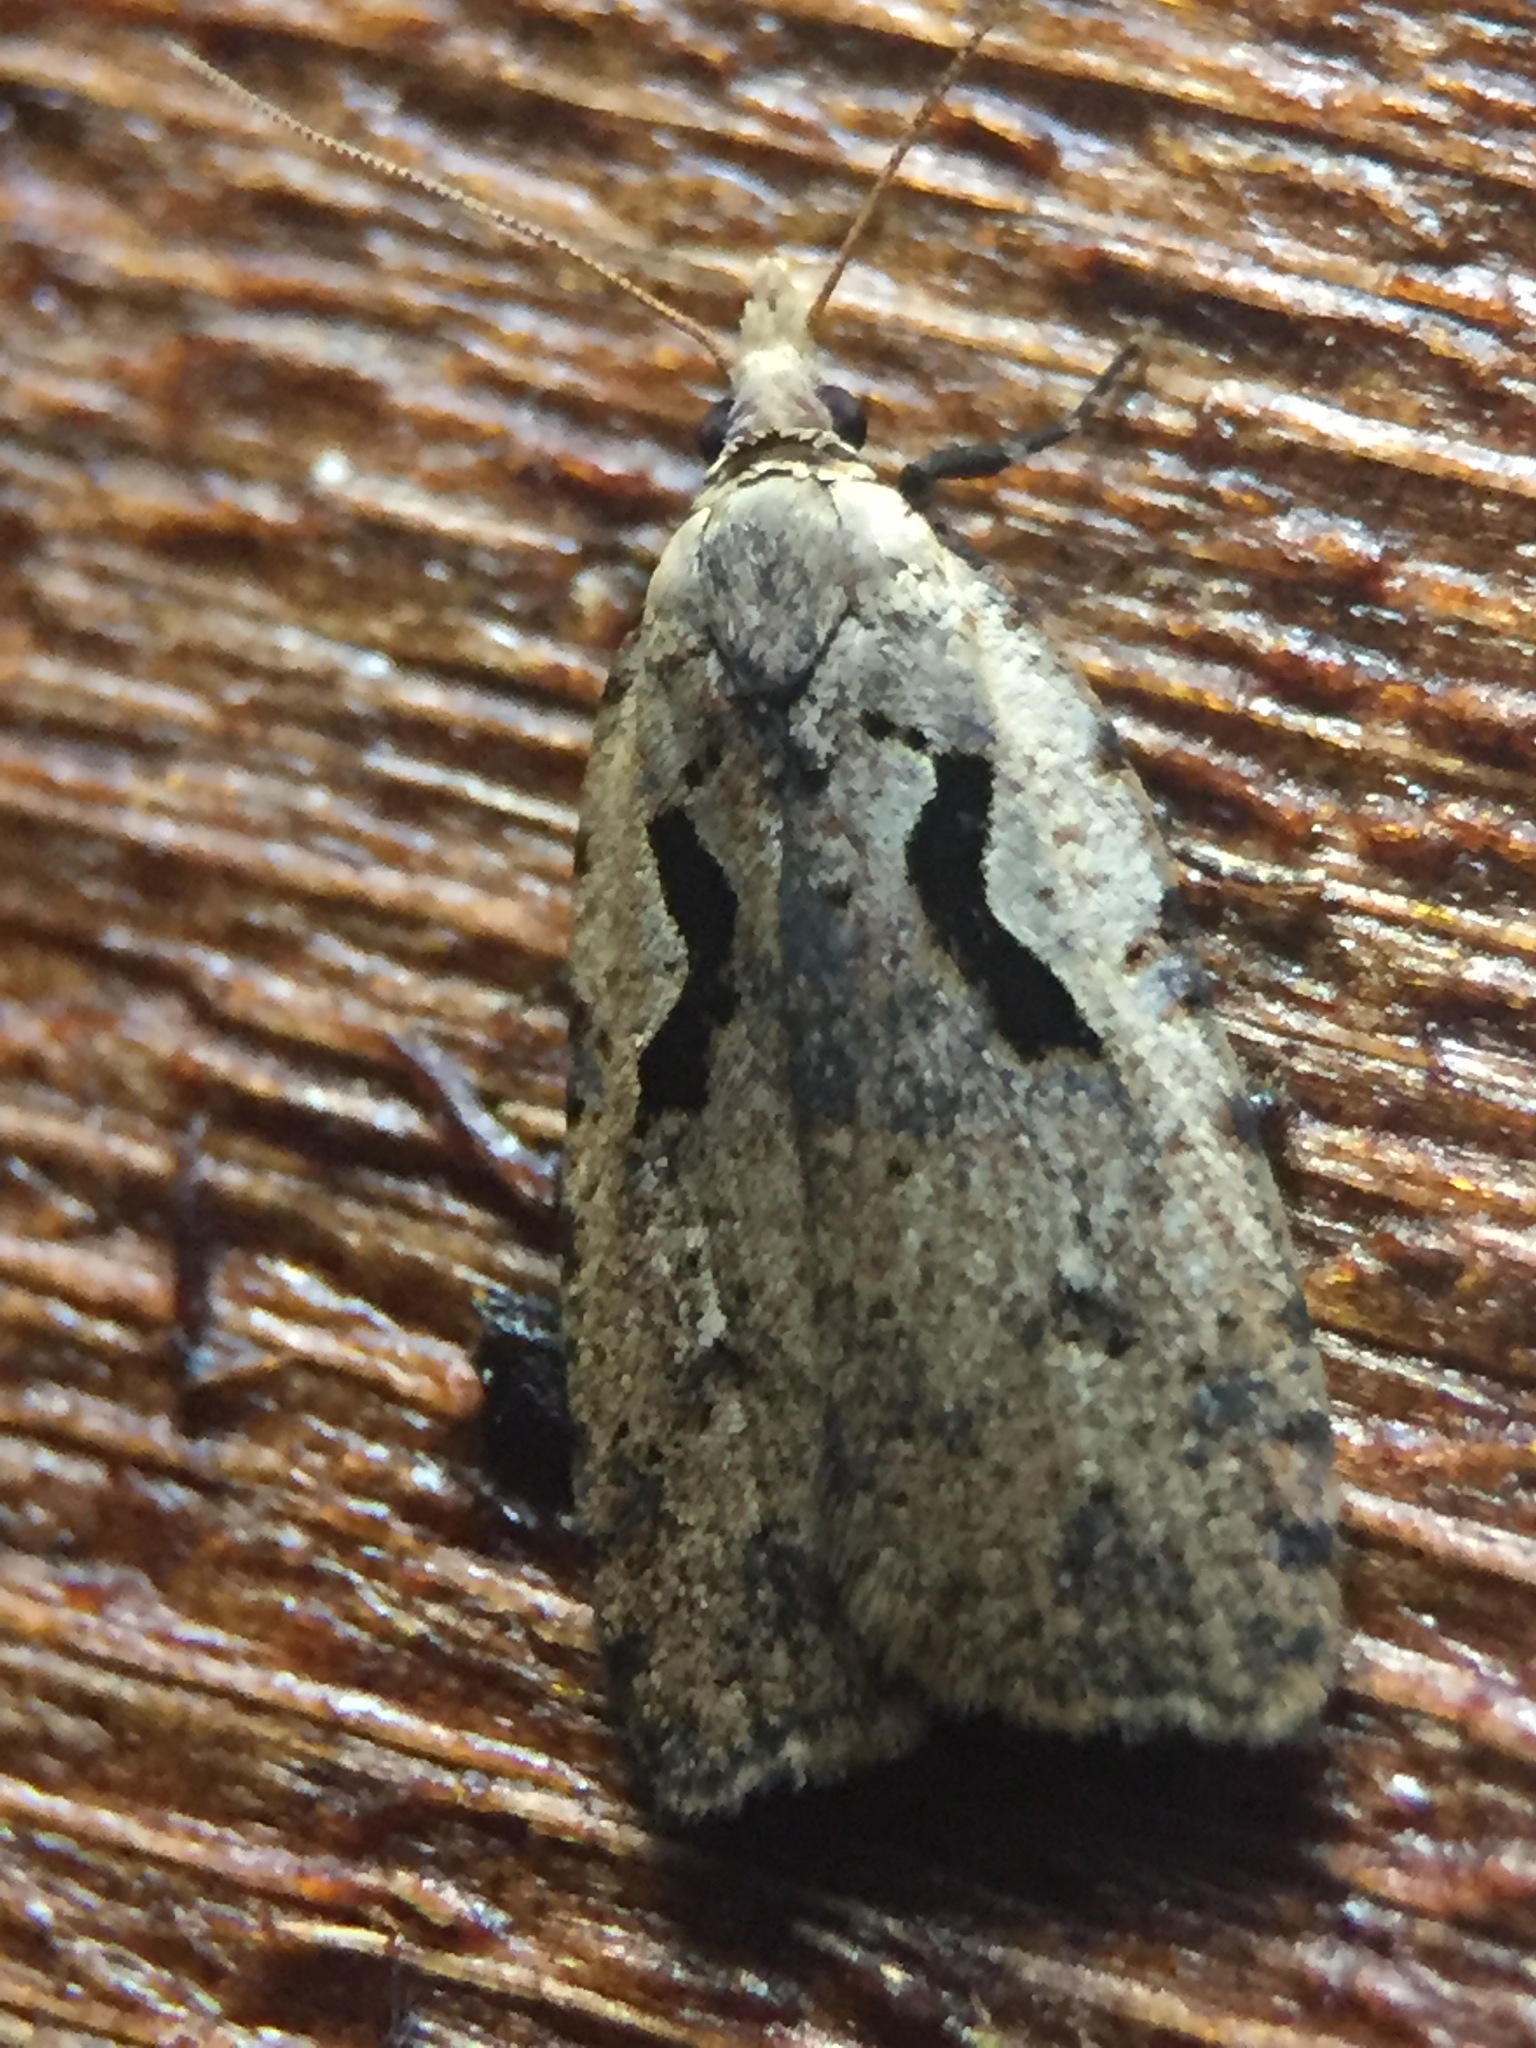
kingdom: Animalia
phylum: Arthropoda
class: Insecta
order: Lepidoptera
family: Tortricidae
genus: Cnephasia
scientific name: Cnephasia jactatana
